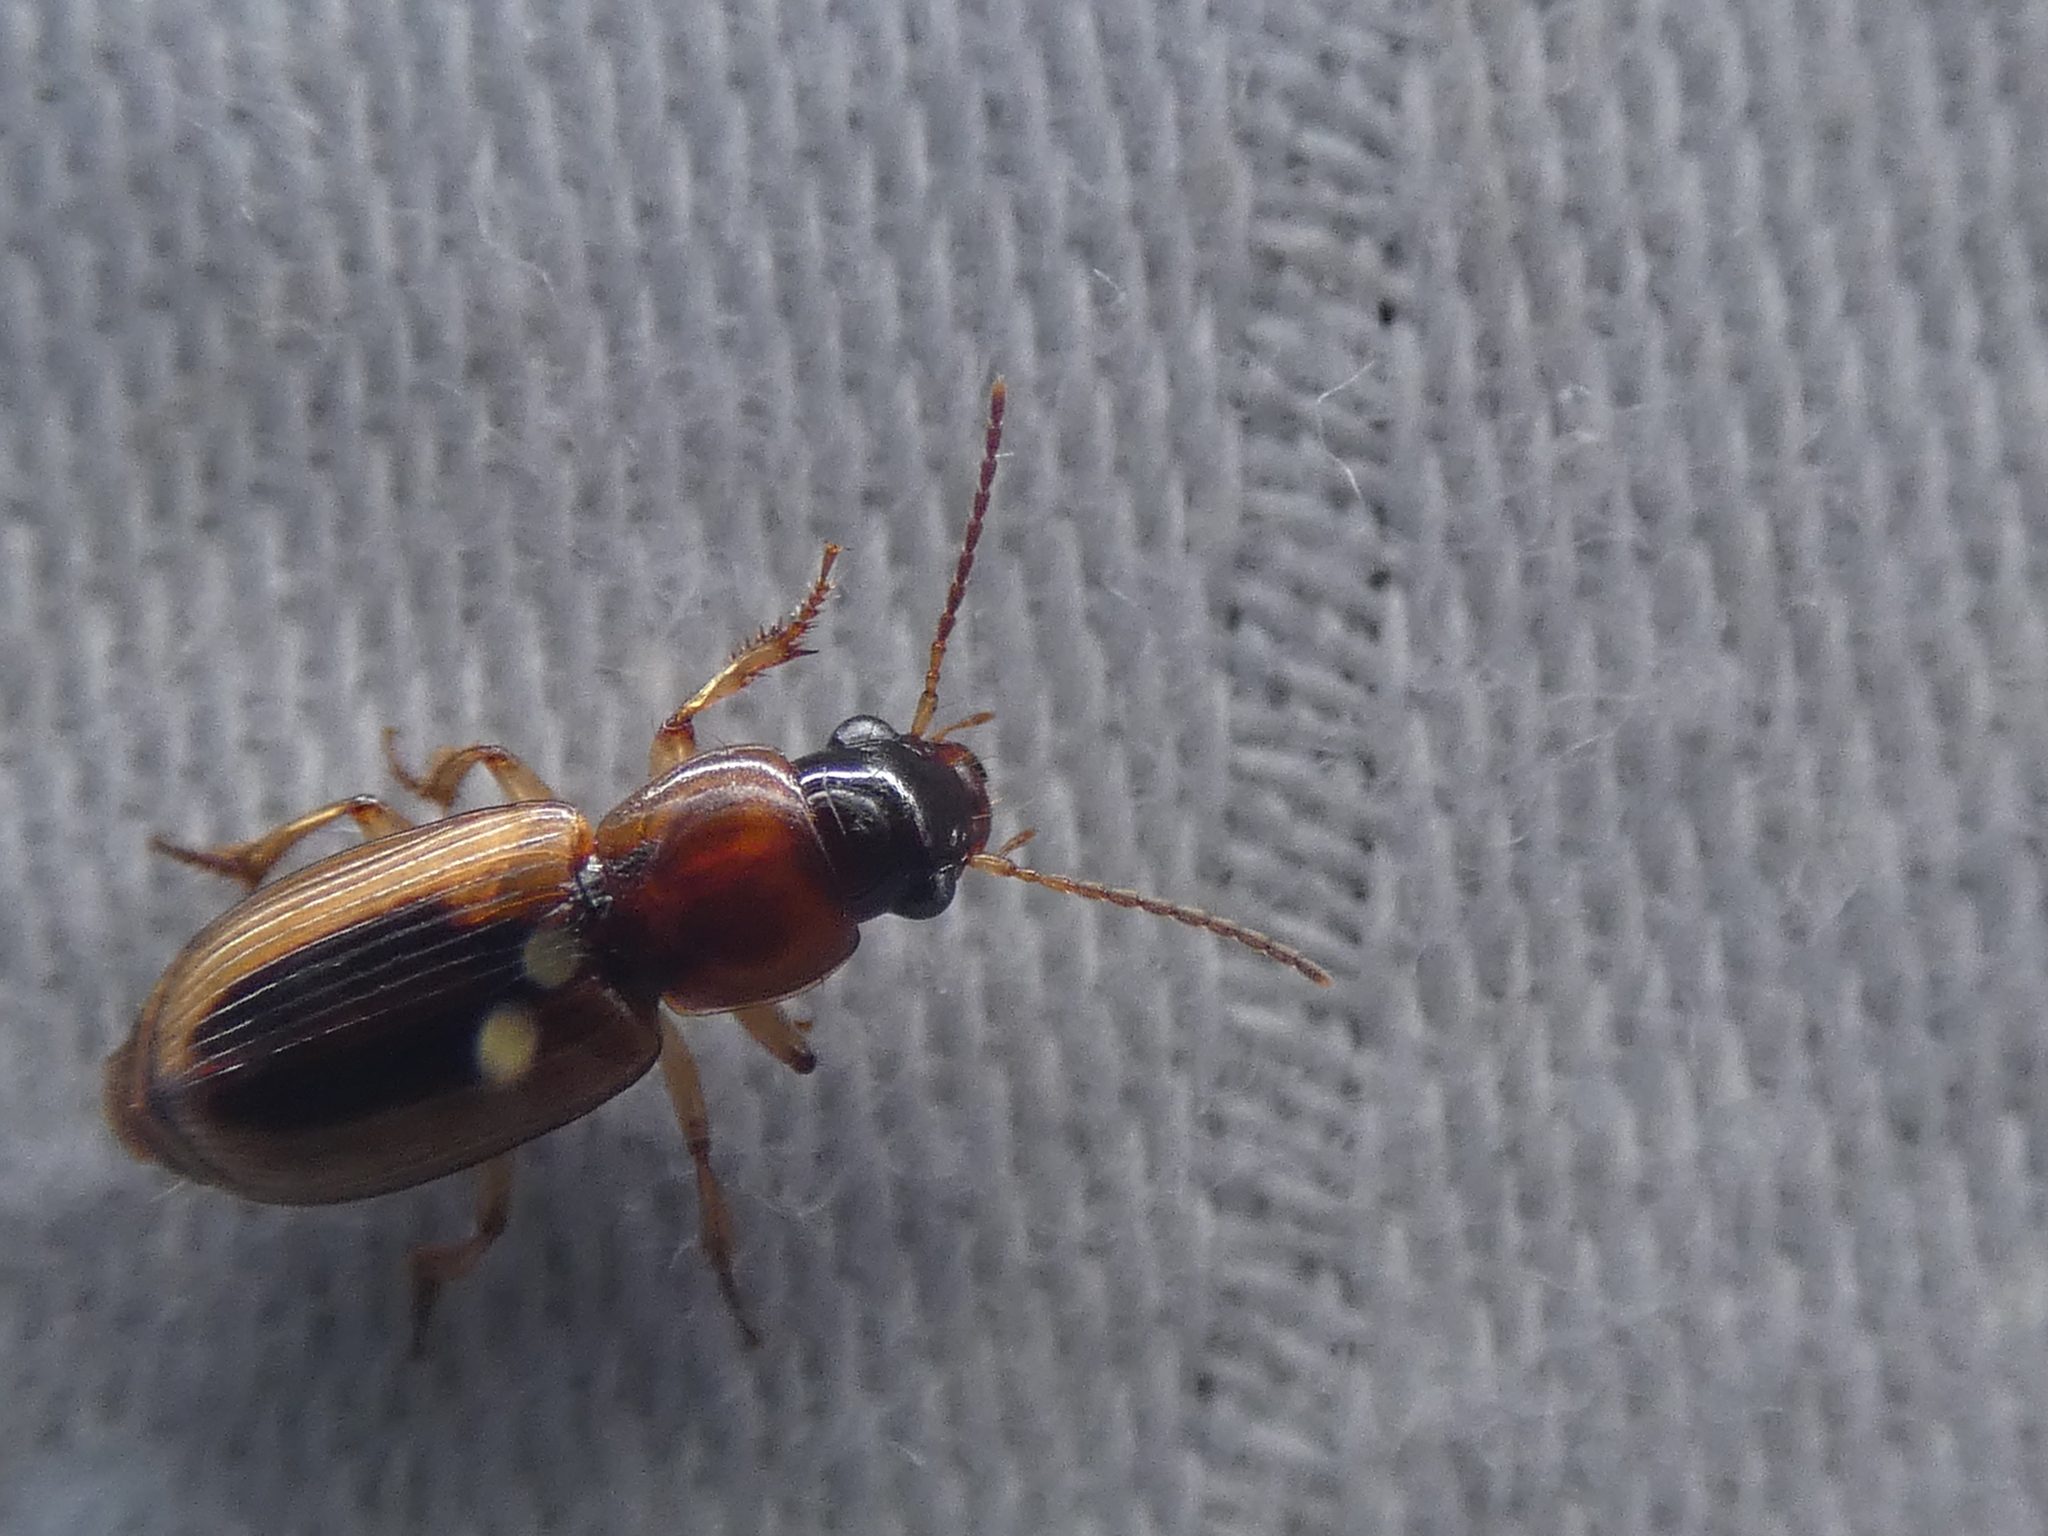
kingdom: Animalia
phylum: Arthropoda
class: Insecta
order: Coleoptera
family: Carabidae
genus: Stenolophus
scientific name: Stenolophus lecontei
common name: Leconte's seedcorn beetle
